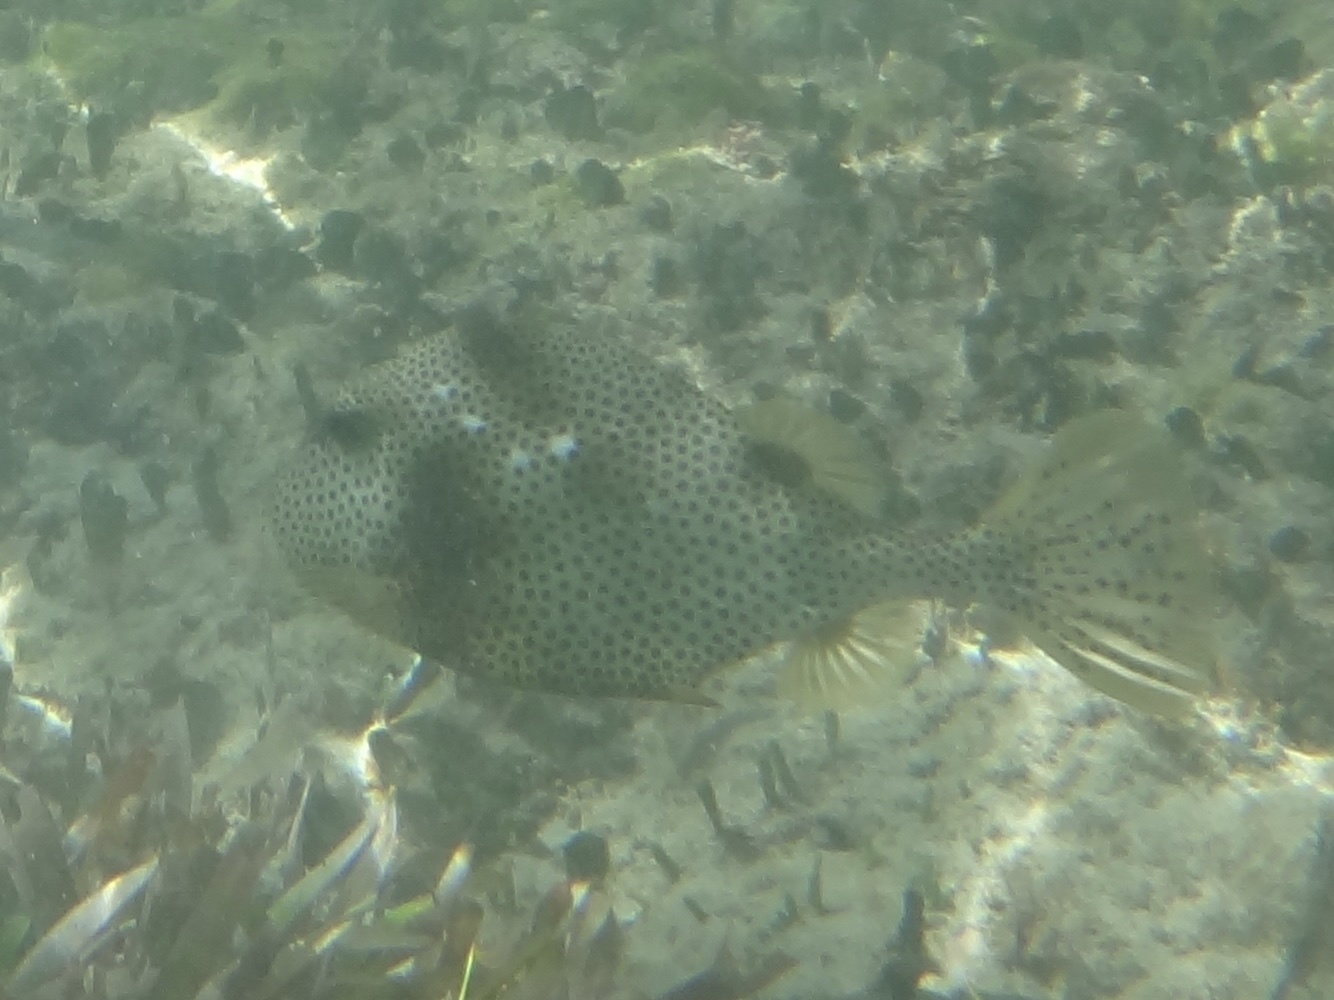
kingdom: Animalia
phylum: Chordata
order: Tetraodontiformes
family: Ostraciidae
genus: Lactophrys
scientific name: Lactophrys bicaudalis
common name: Spotted trunkfish
